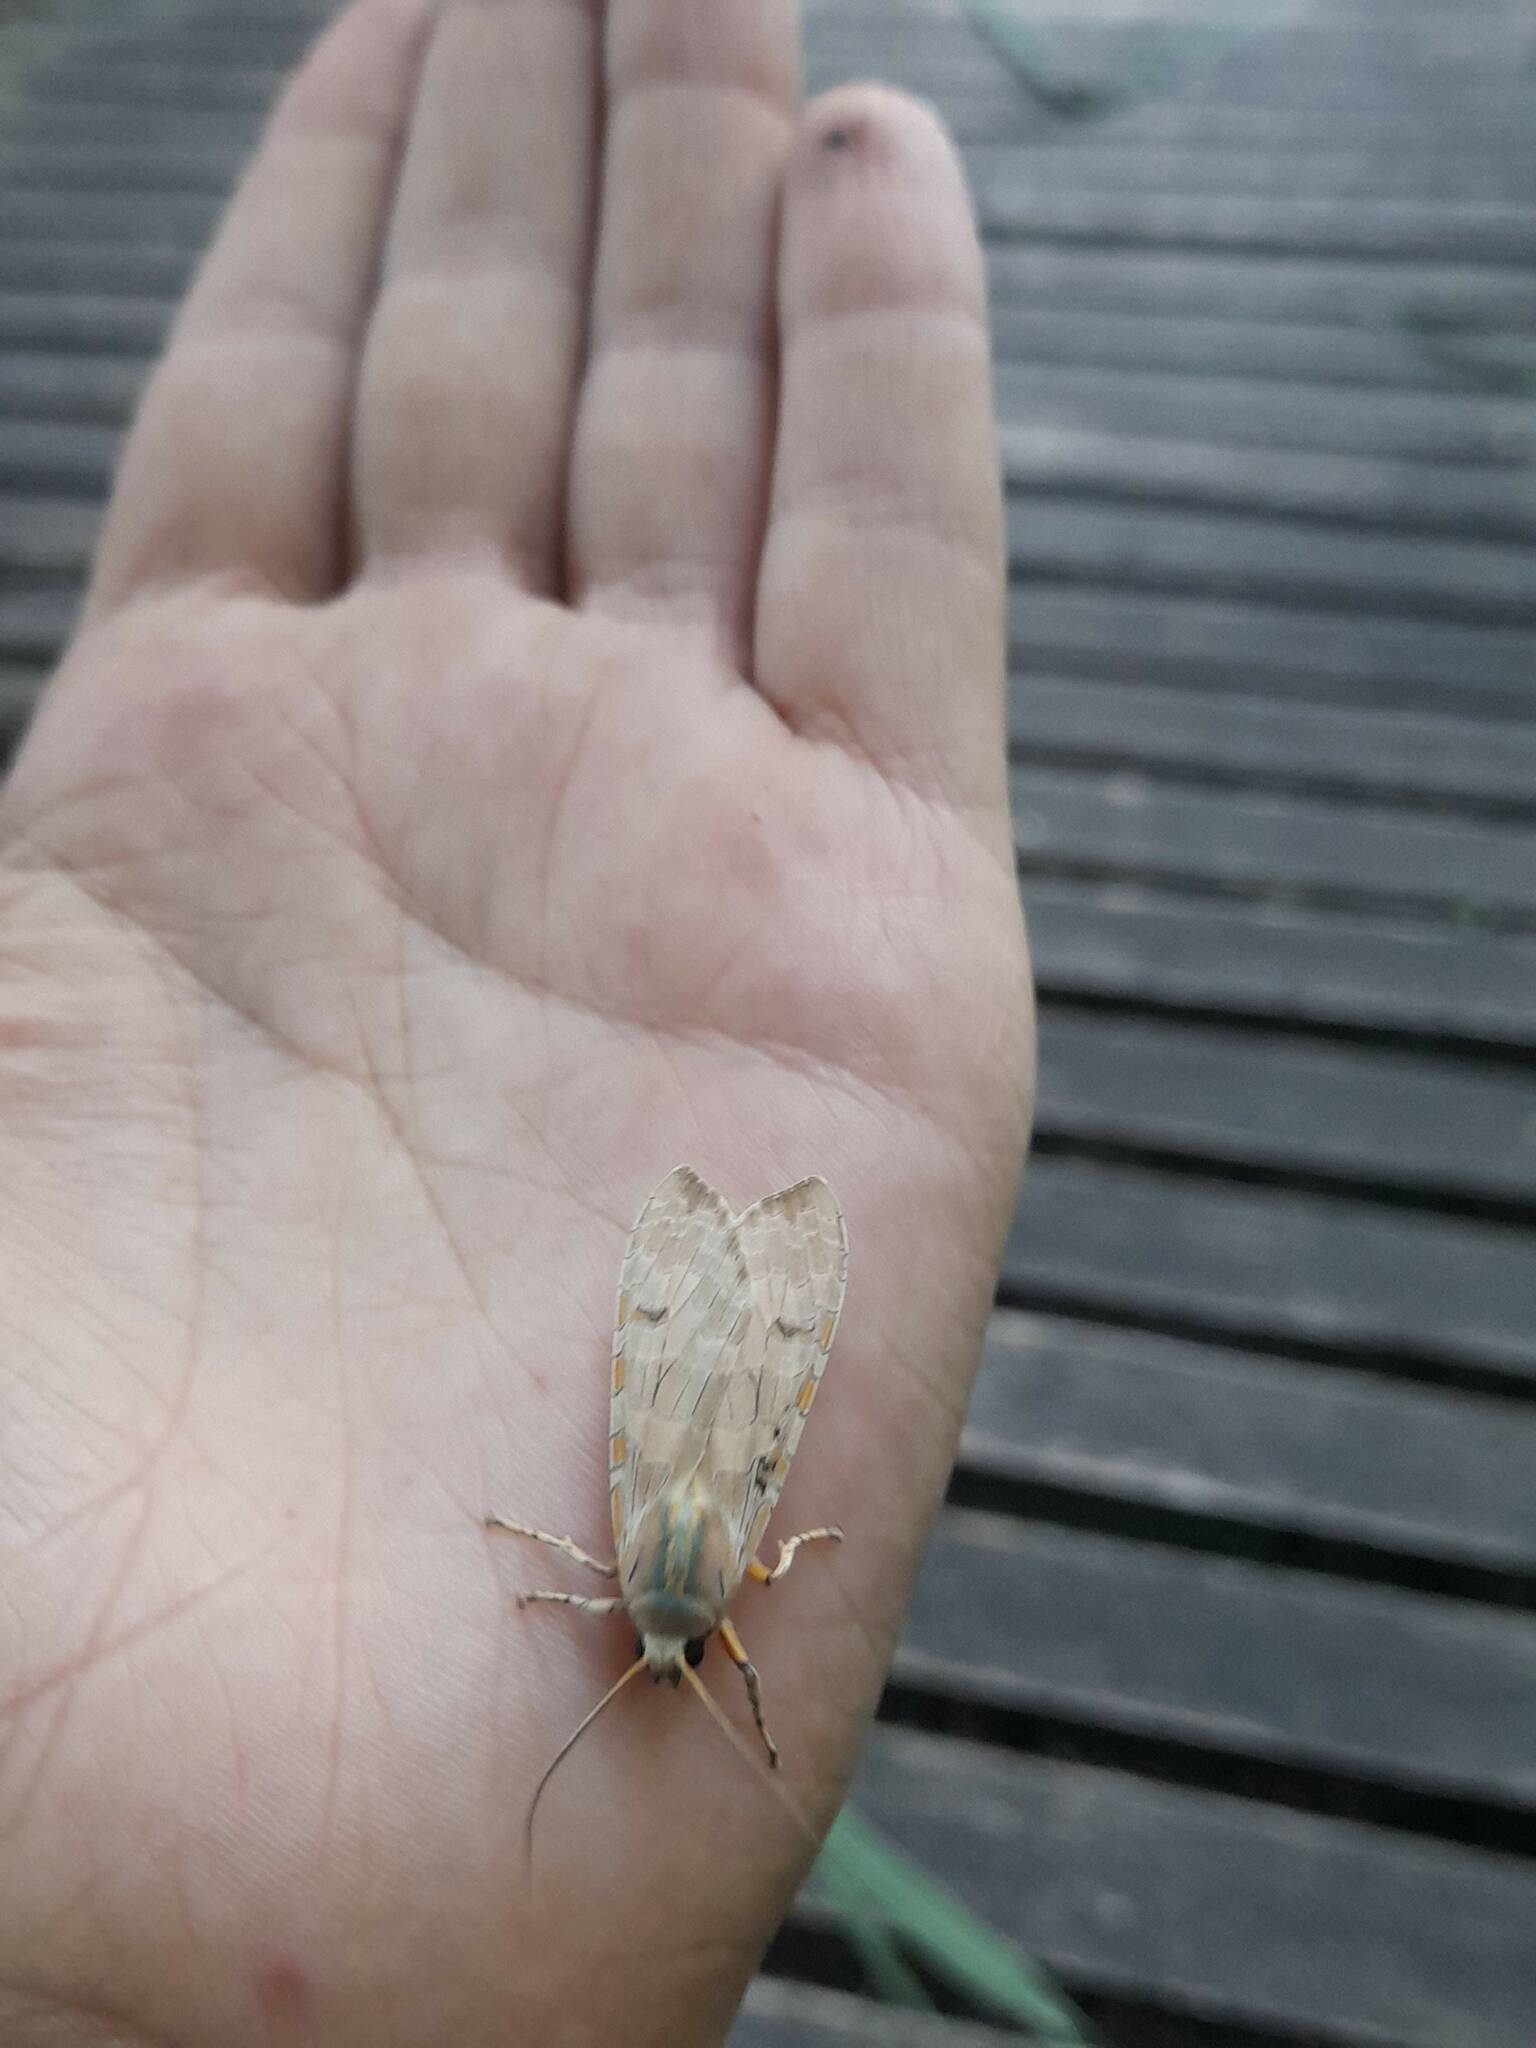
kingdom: Animalia
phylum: Arthropoda
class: Insecta
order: Lepidoptera
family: Erebidae
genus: Halysidota
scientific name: Halysidota ruscheweyhi
